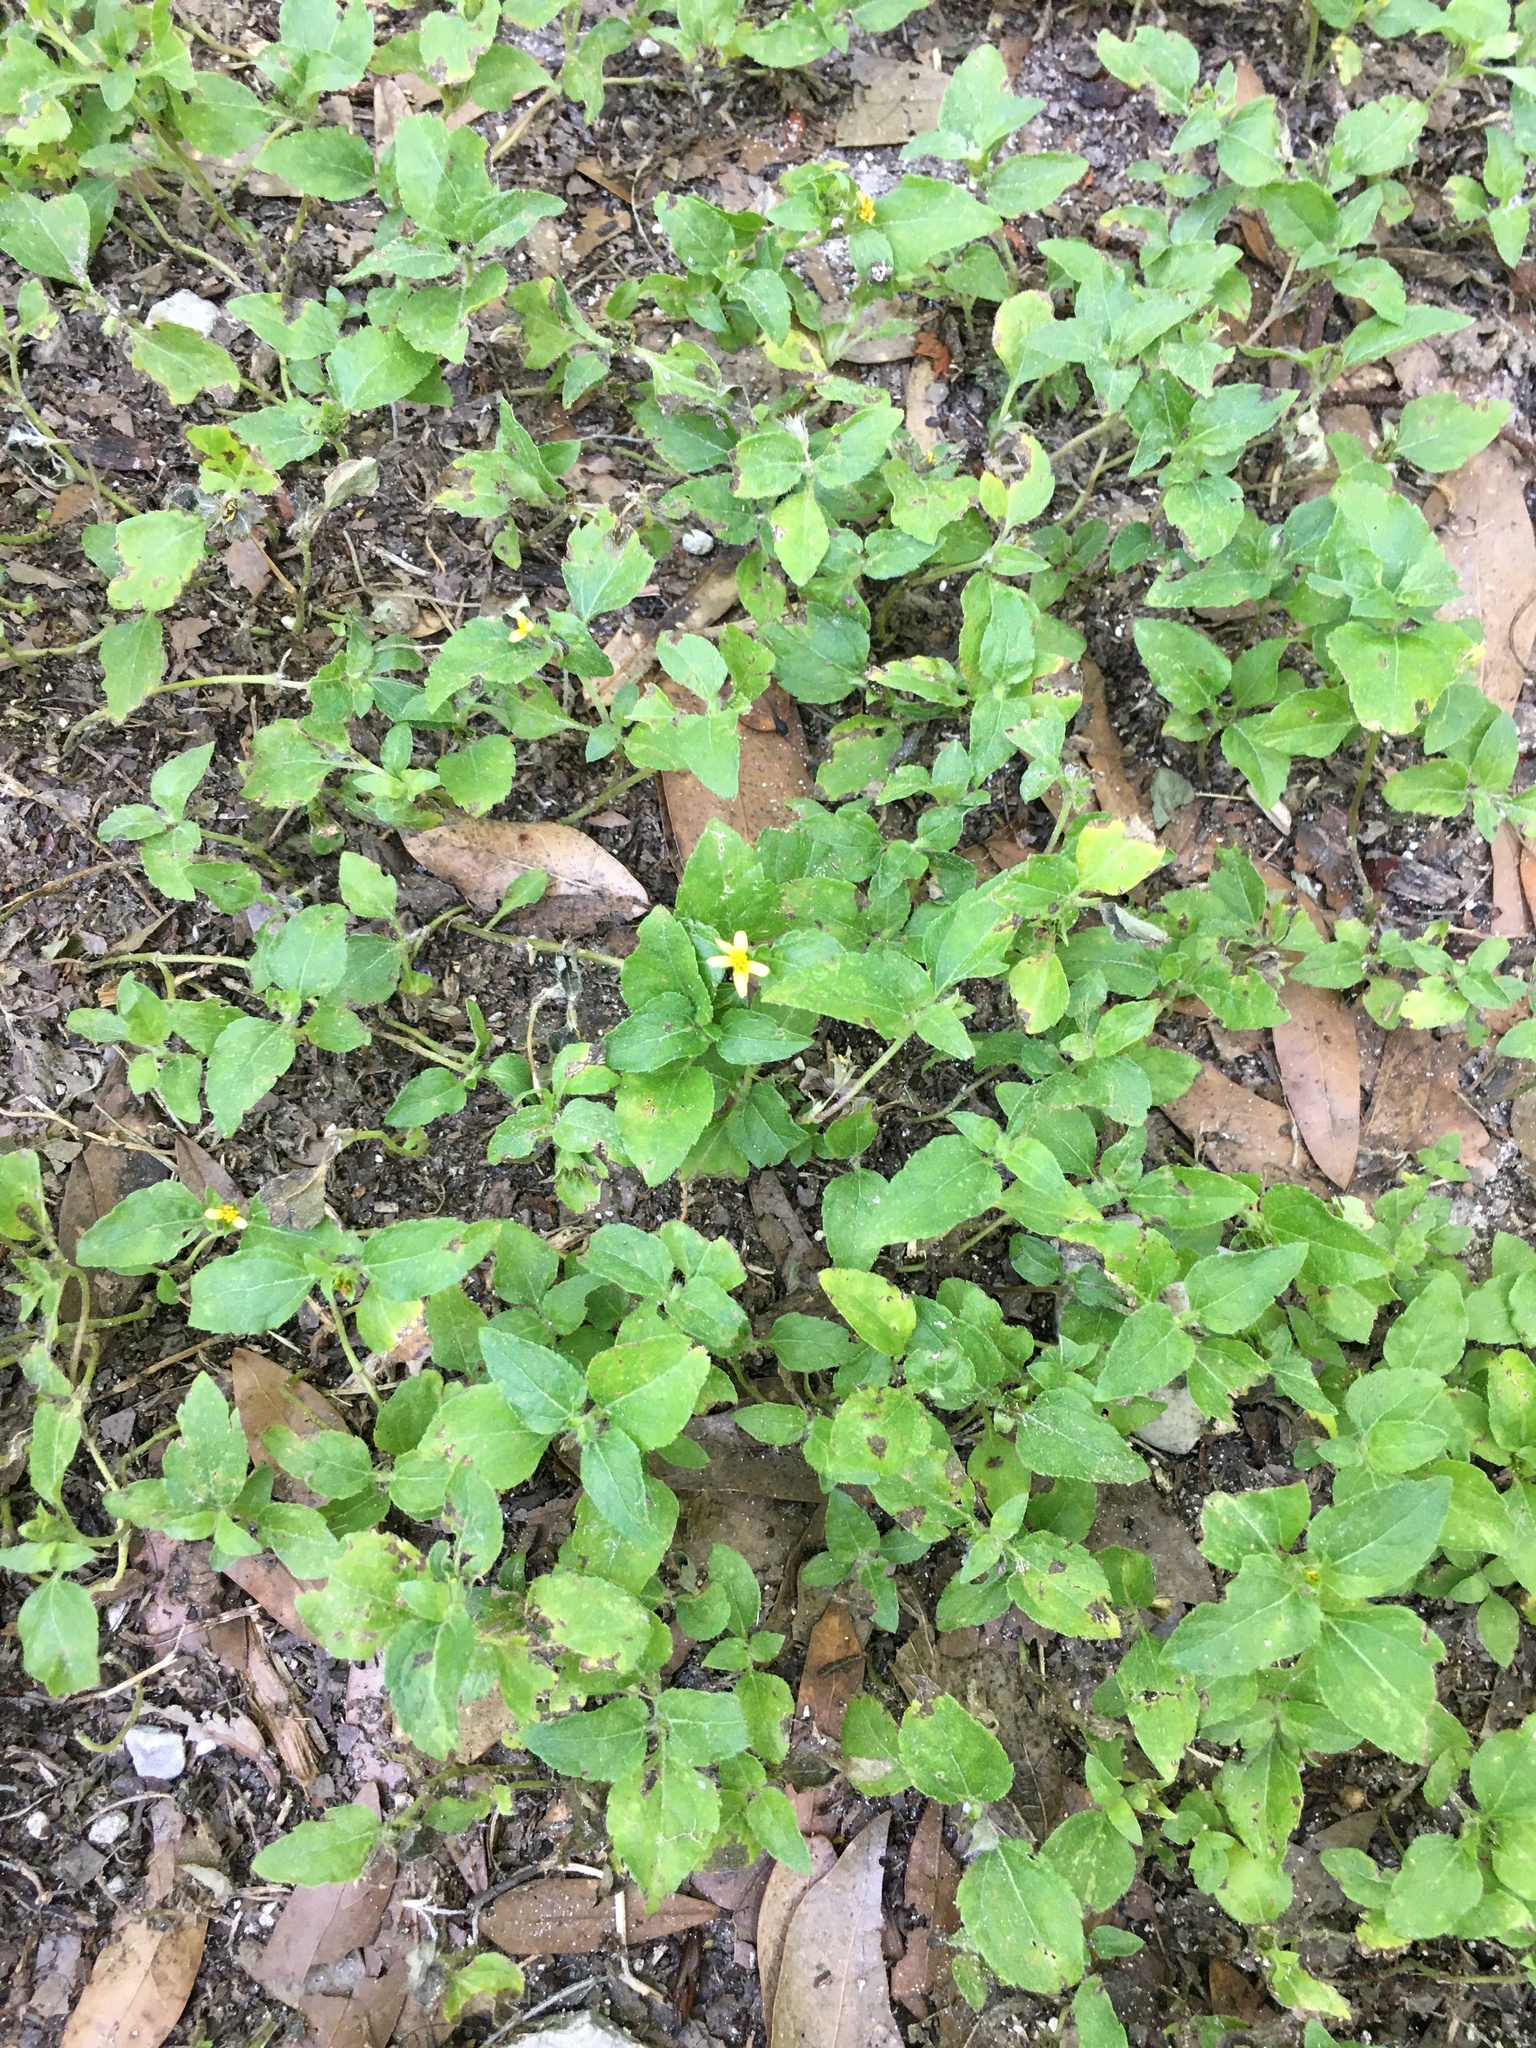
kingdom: Plantae
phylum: Tracheophyta
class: Magnoliopsida
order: Asterales
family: Asteraceae
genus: Calyptocarpus
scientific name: Calyptocarpus vialis
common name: Straggler daisy
